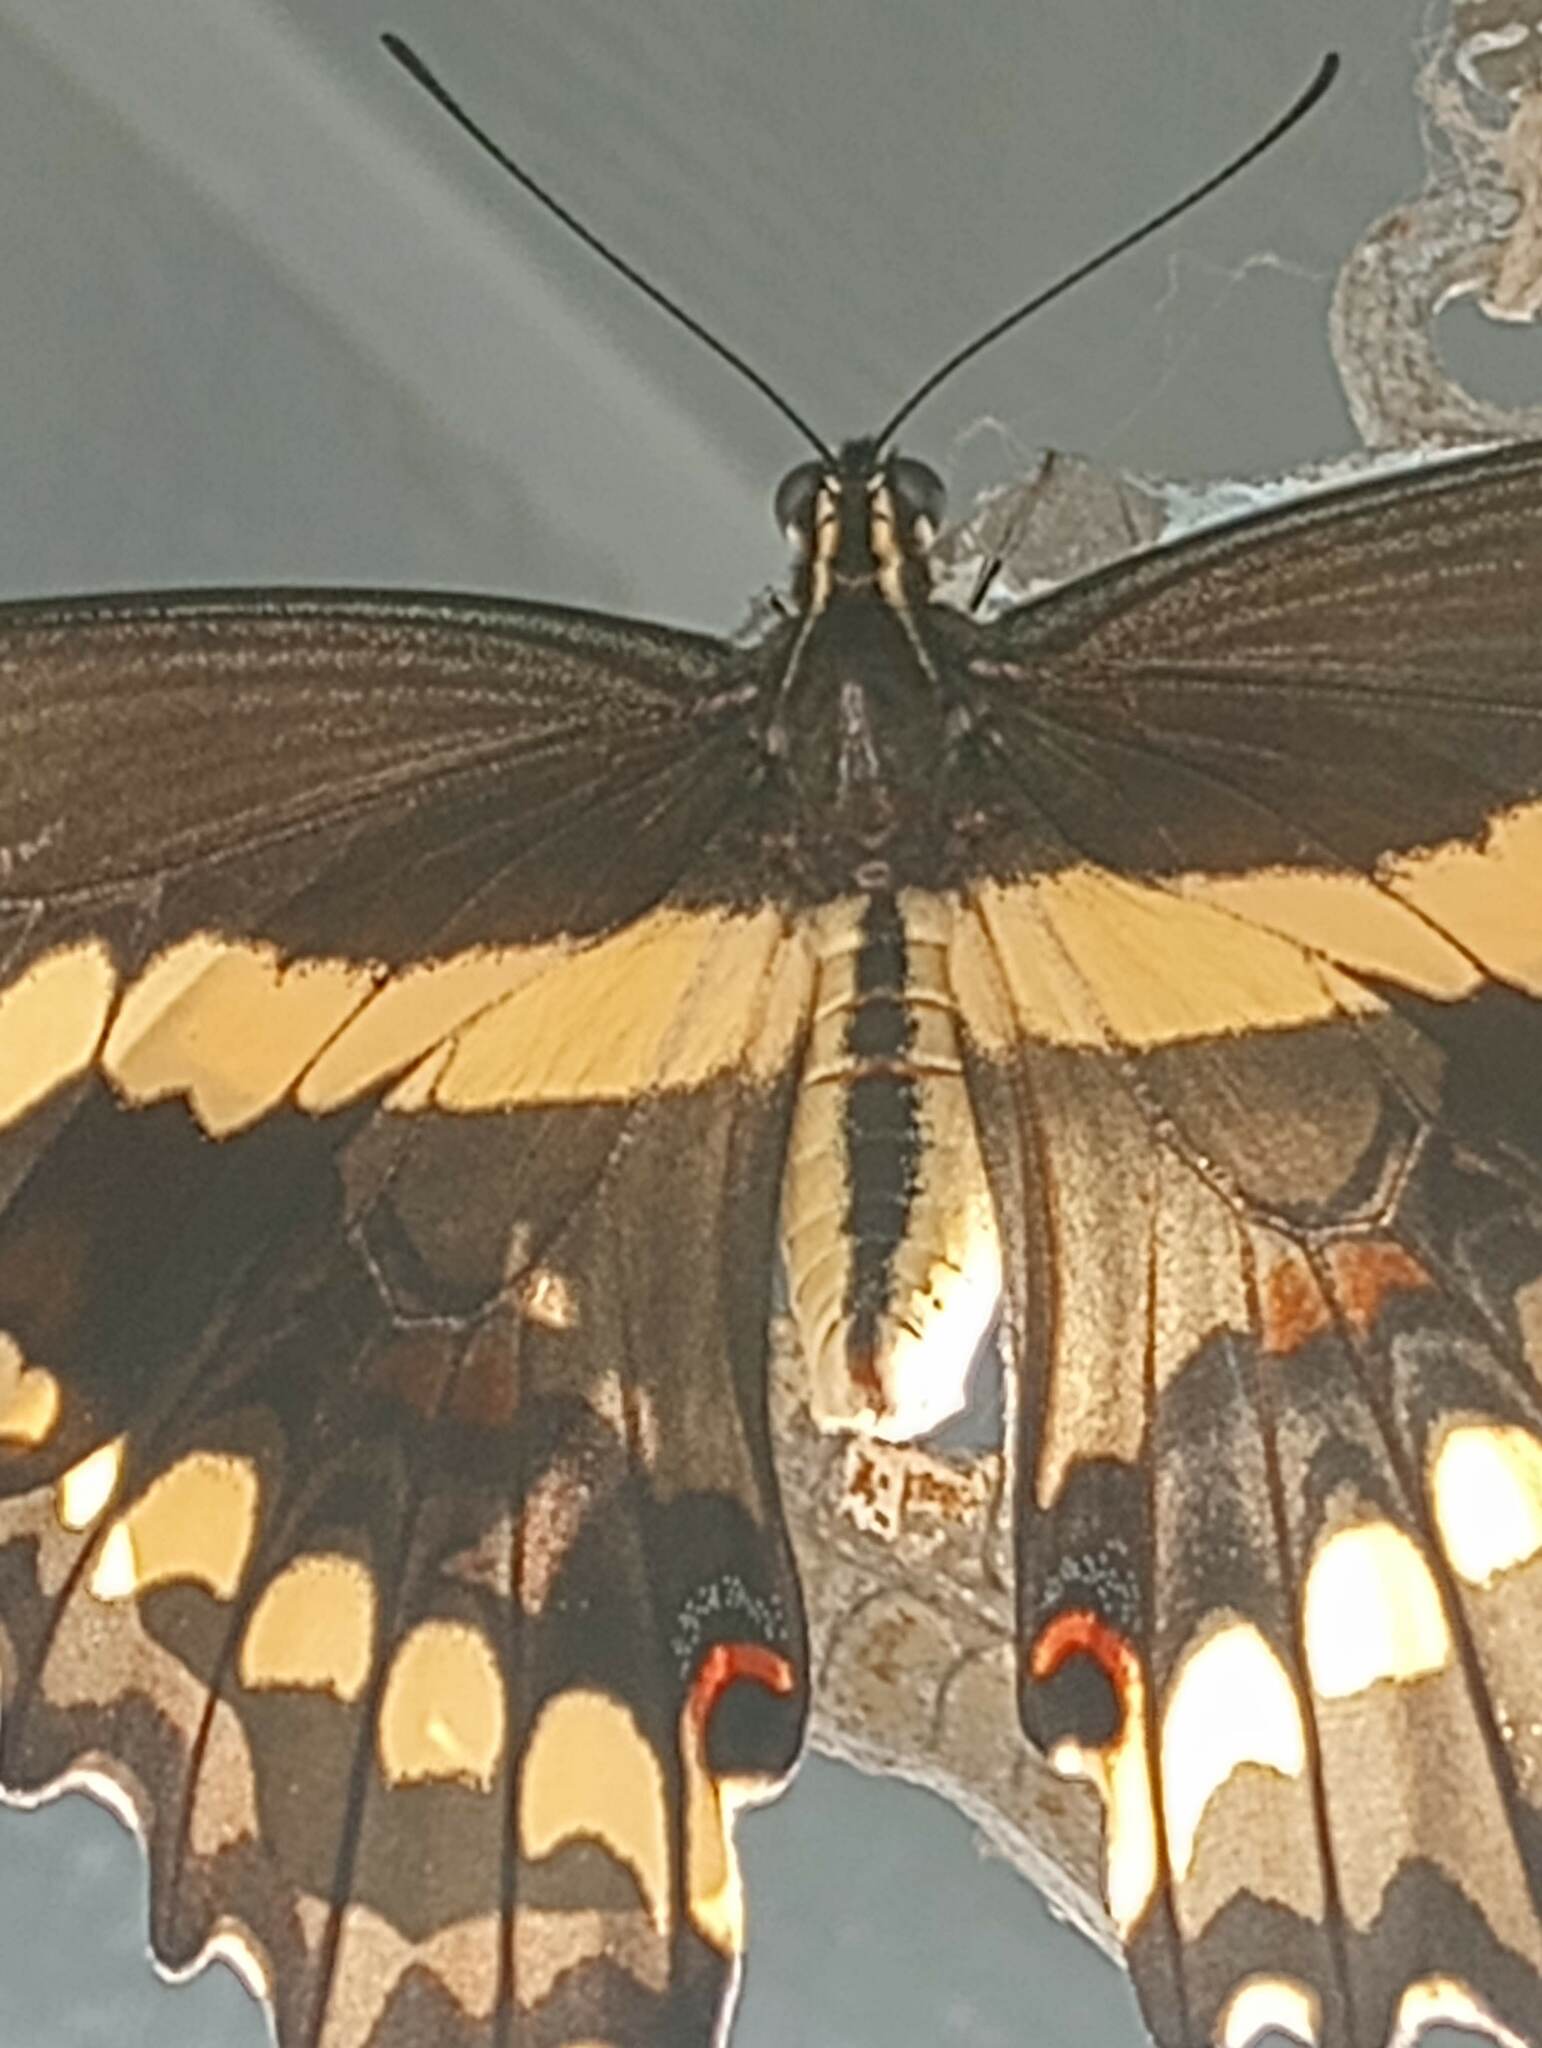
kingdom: Animalia
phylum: Arthropoda
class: Insecta
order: Lepidoptera
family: Papilionidae
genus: Papilio
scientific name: Papilio rumiko
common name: Western giant swallowtail
